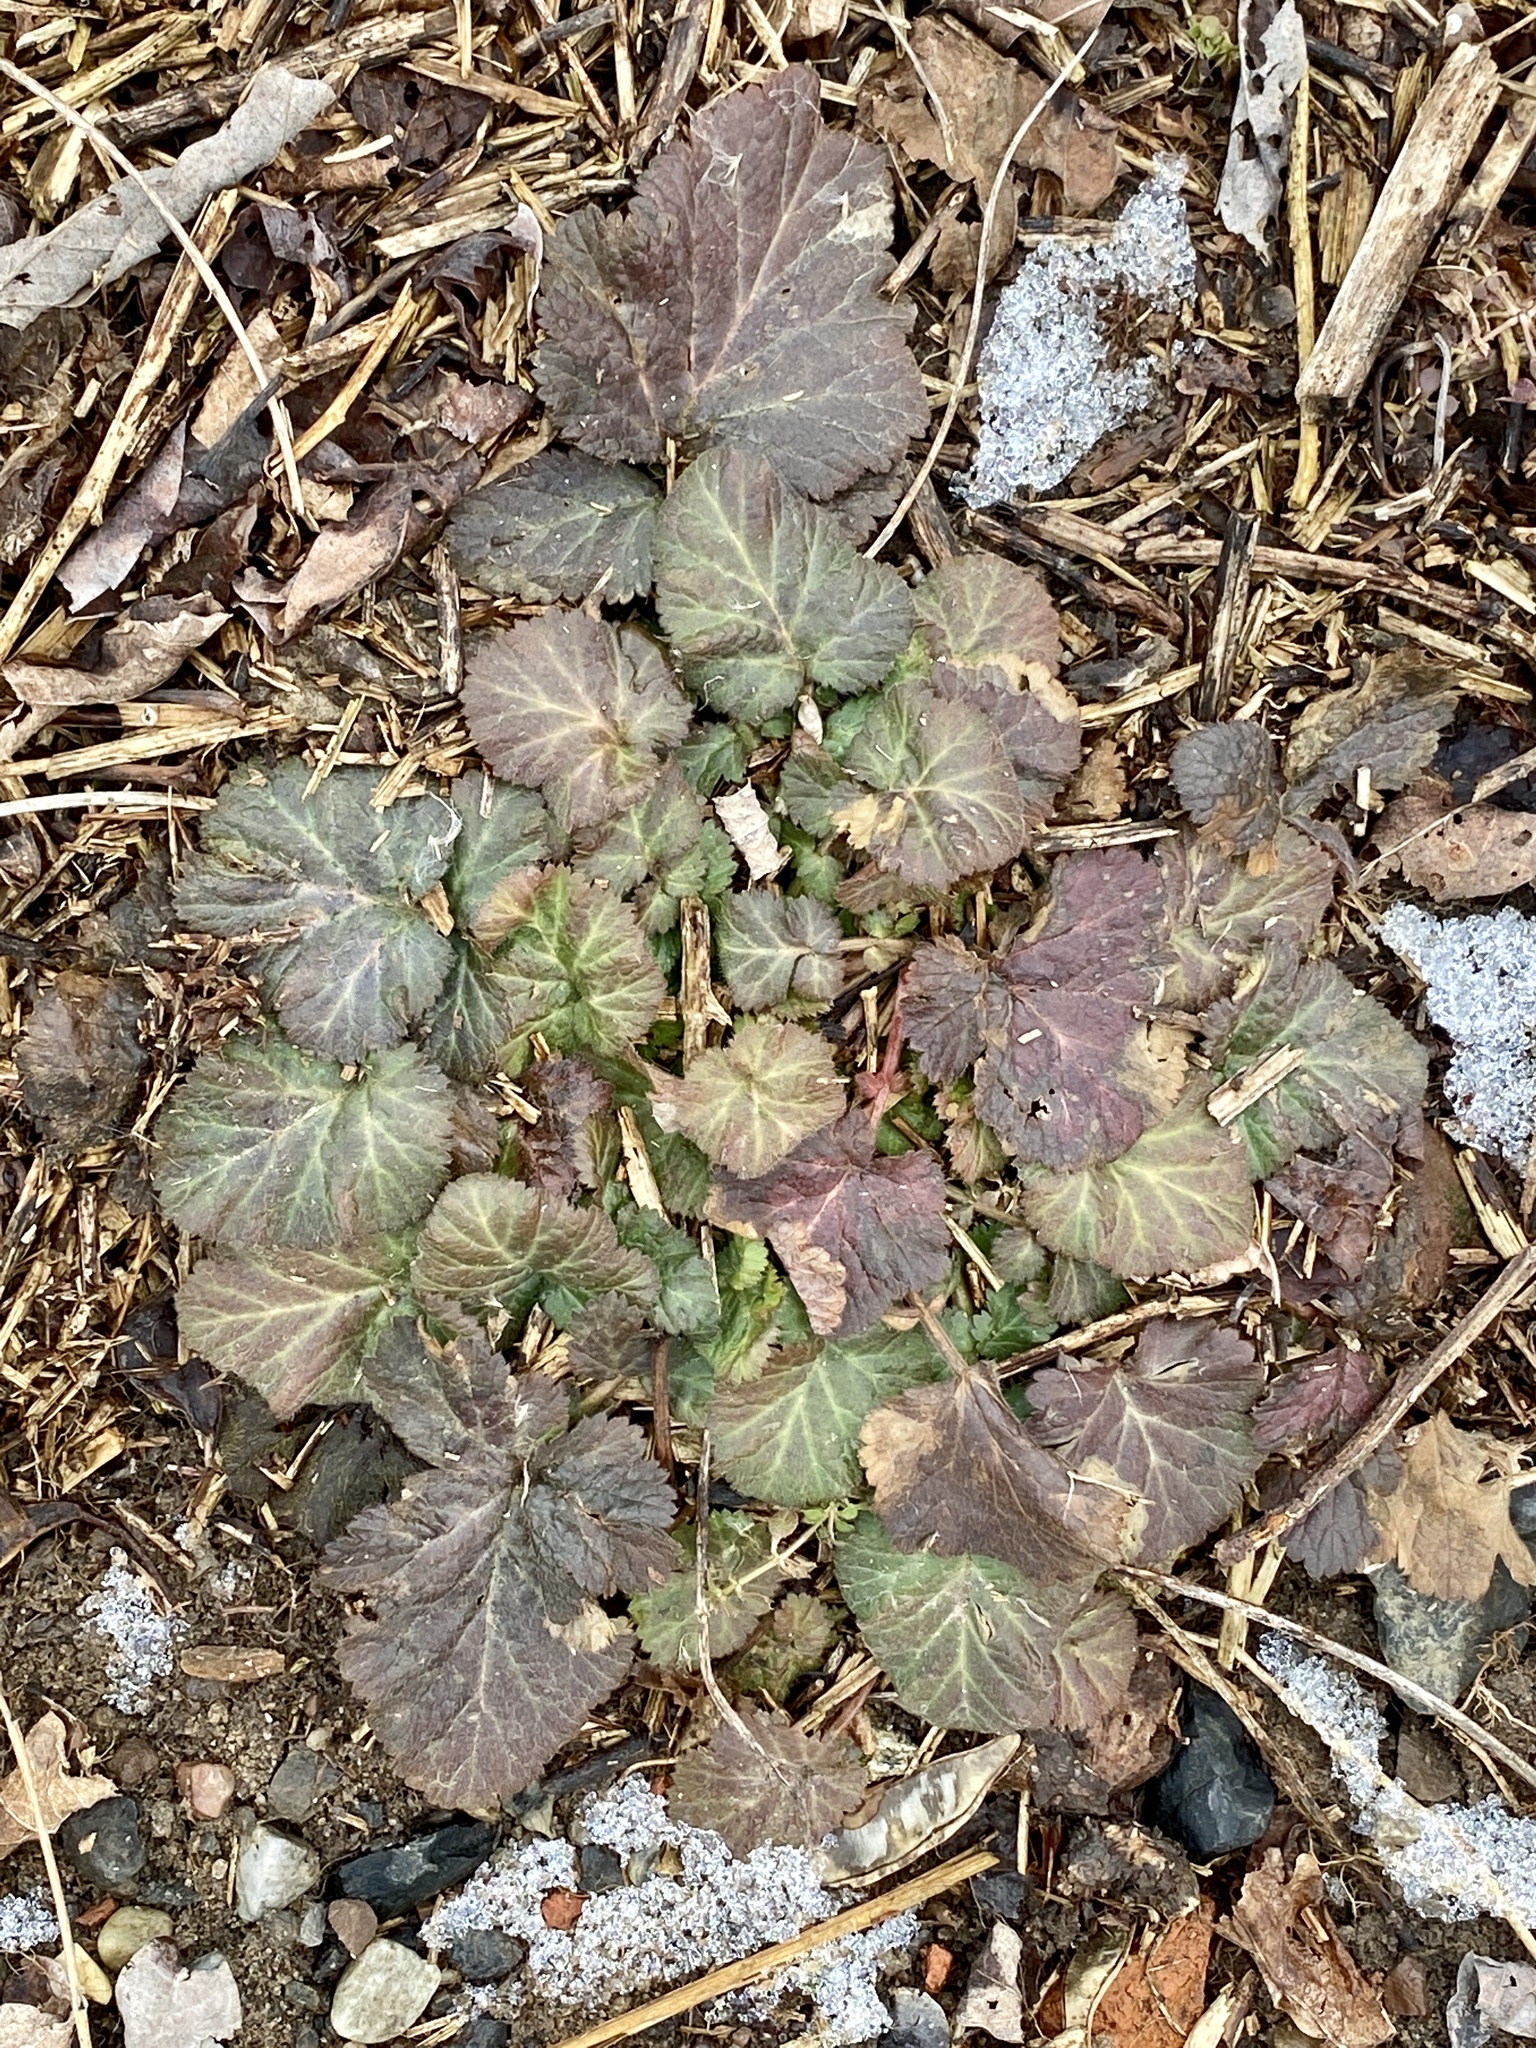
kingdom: Plantae
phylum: Tracheophyta
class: Magnoliopsida
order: Rosales
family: Rosaceae
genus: Geum
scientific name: Geum canadense
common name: White avens
